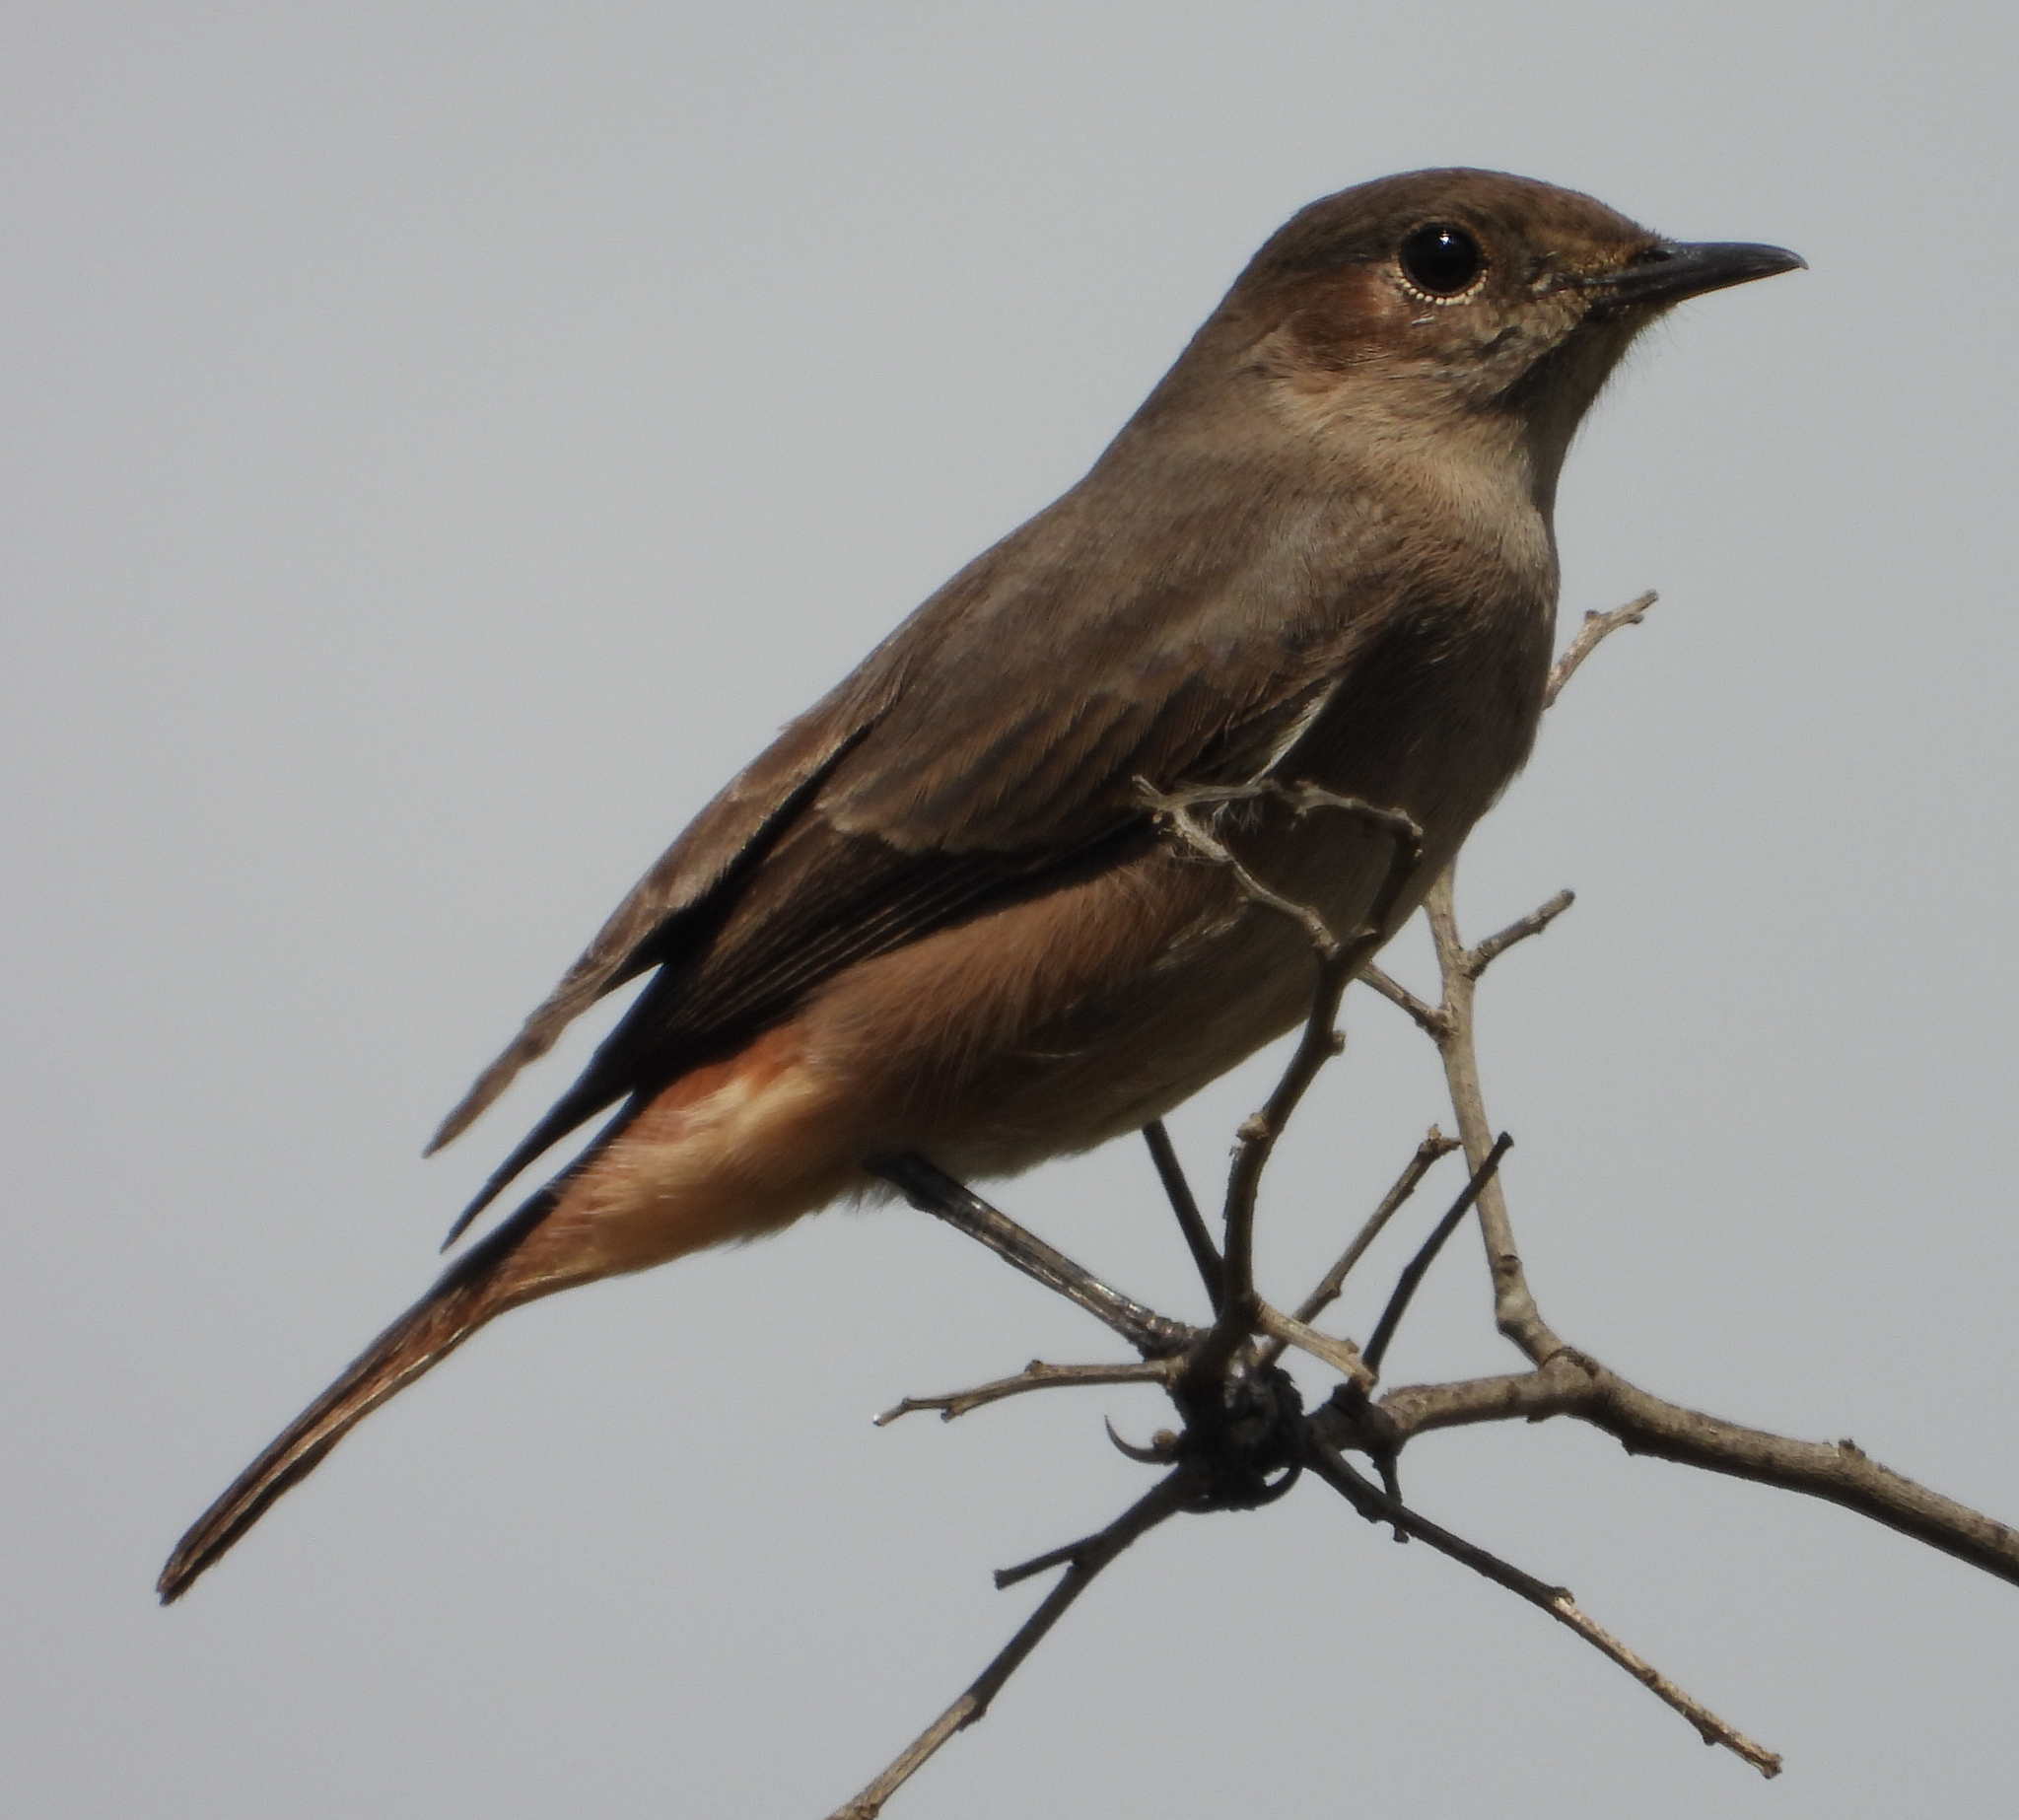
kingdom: Animalia
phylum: Chordata
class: Aves
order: Passeriformes
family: Muscicapidae
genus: Oenanthe
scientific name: Oenanthe familiaris
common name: Familiar chat
